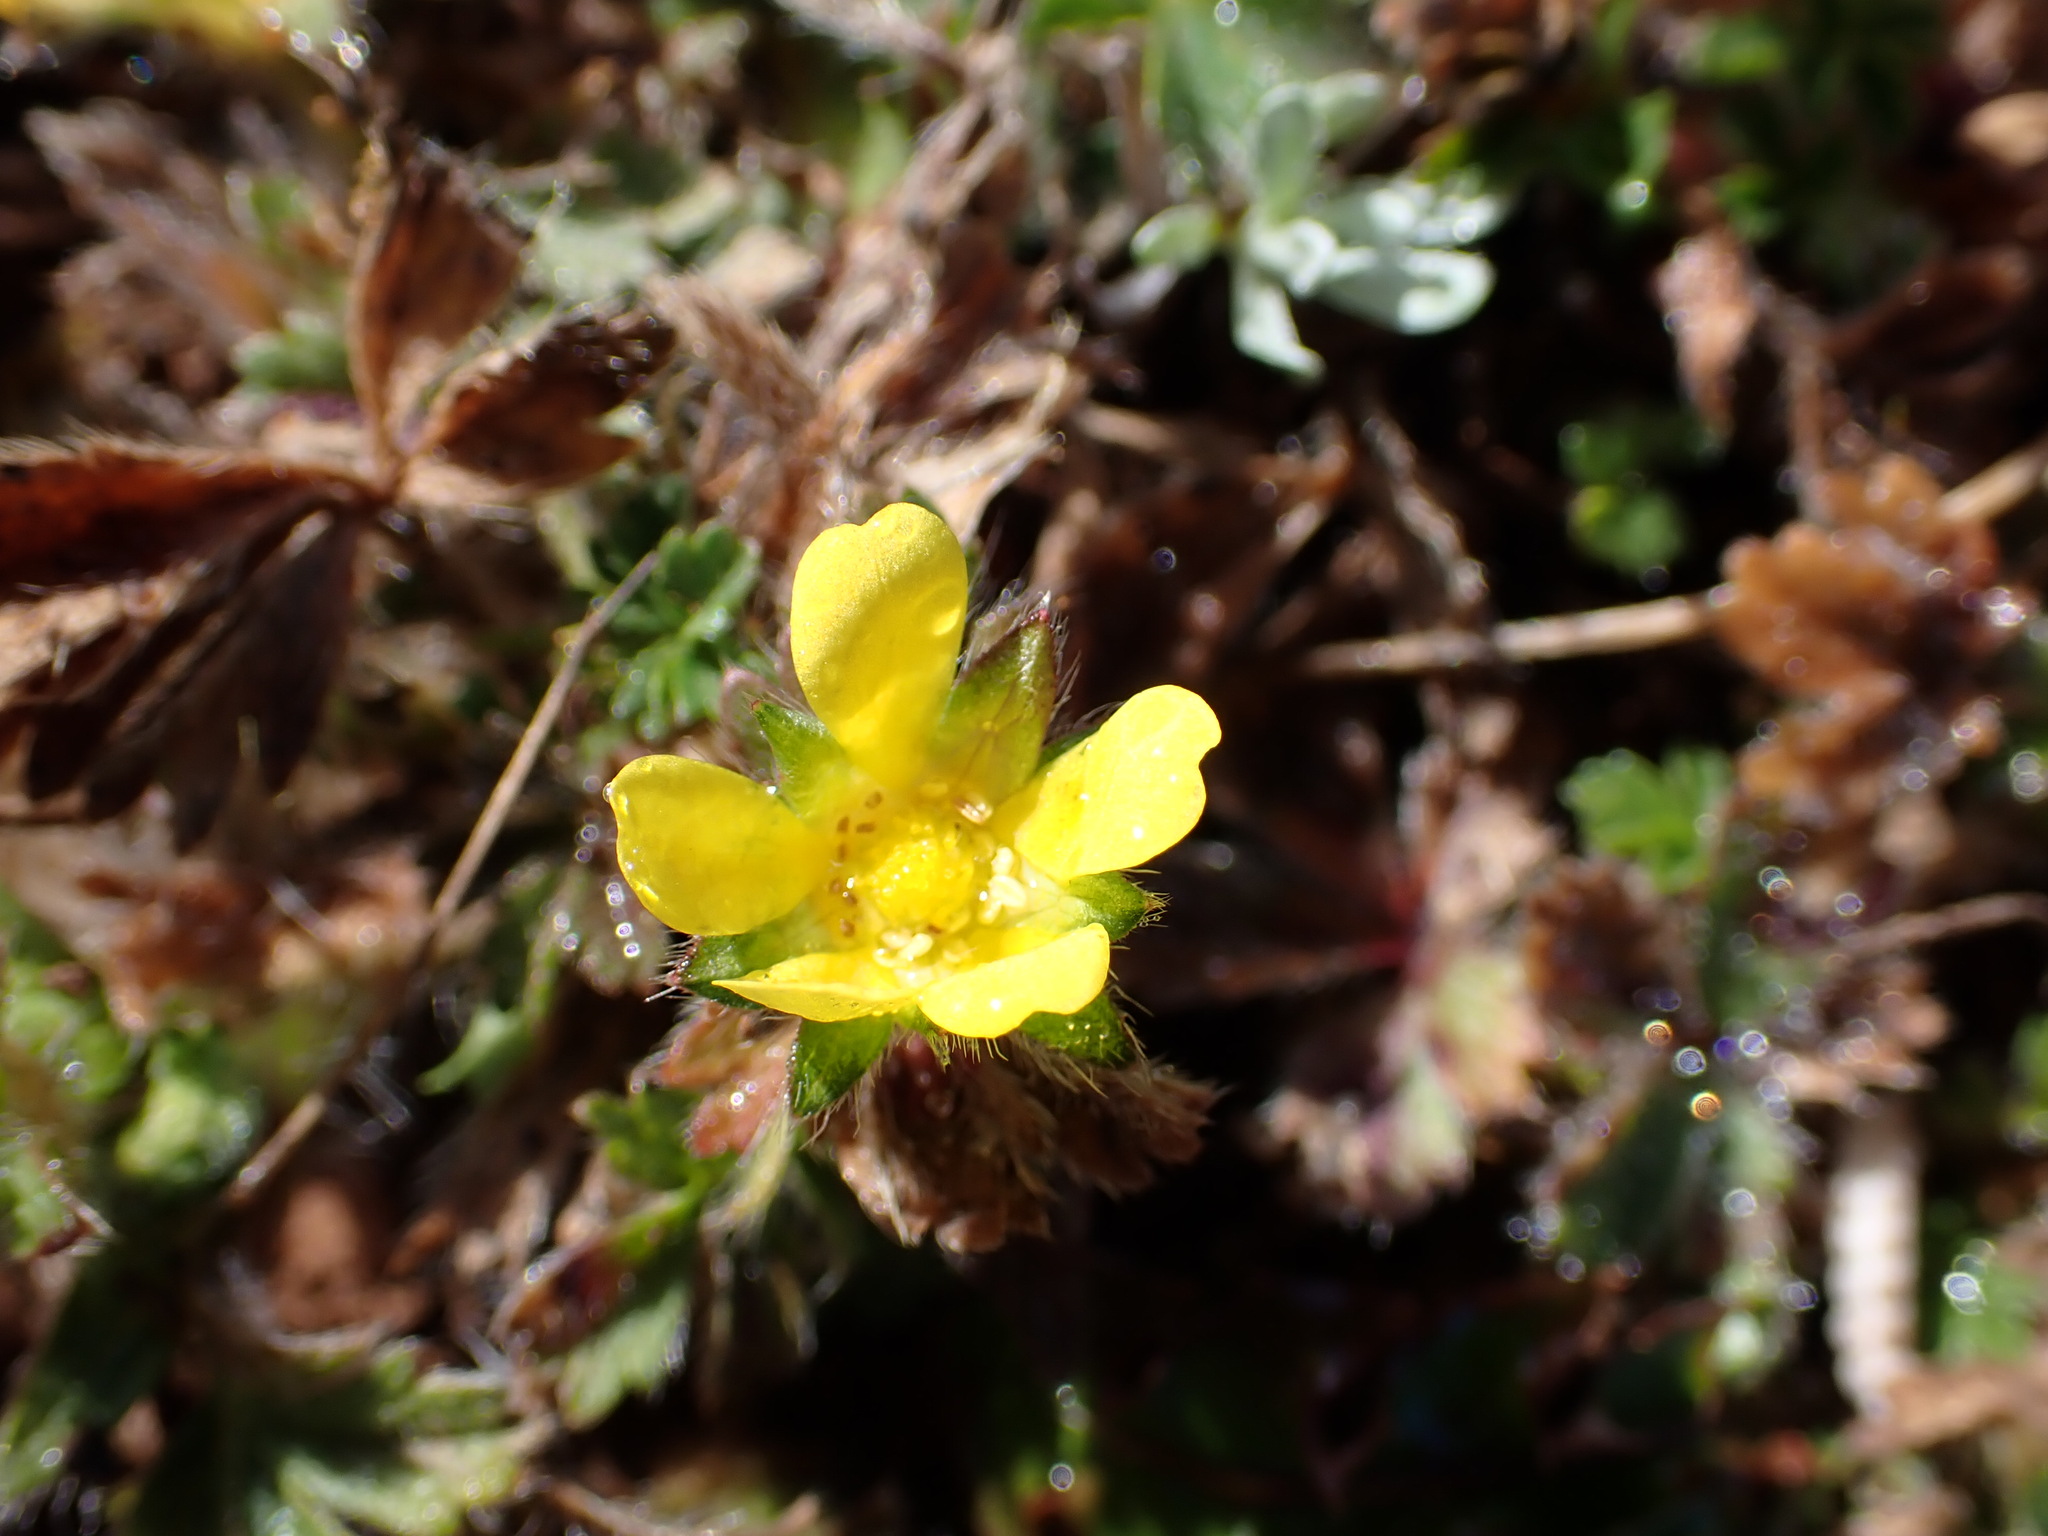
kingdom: Plantae
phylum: Tracheophyta
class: Magnoliopsida
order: Rosales
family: Rosaceae
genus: Potentilla
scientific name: Potentilla verna
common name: Spring cinquefoil
